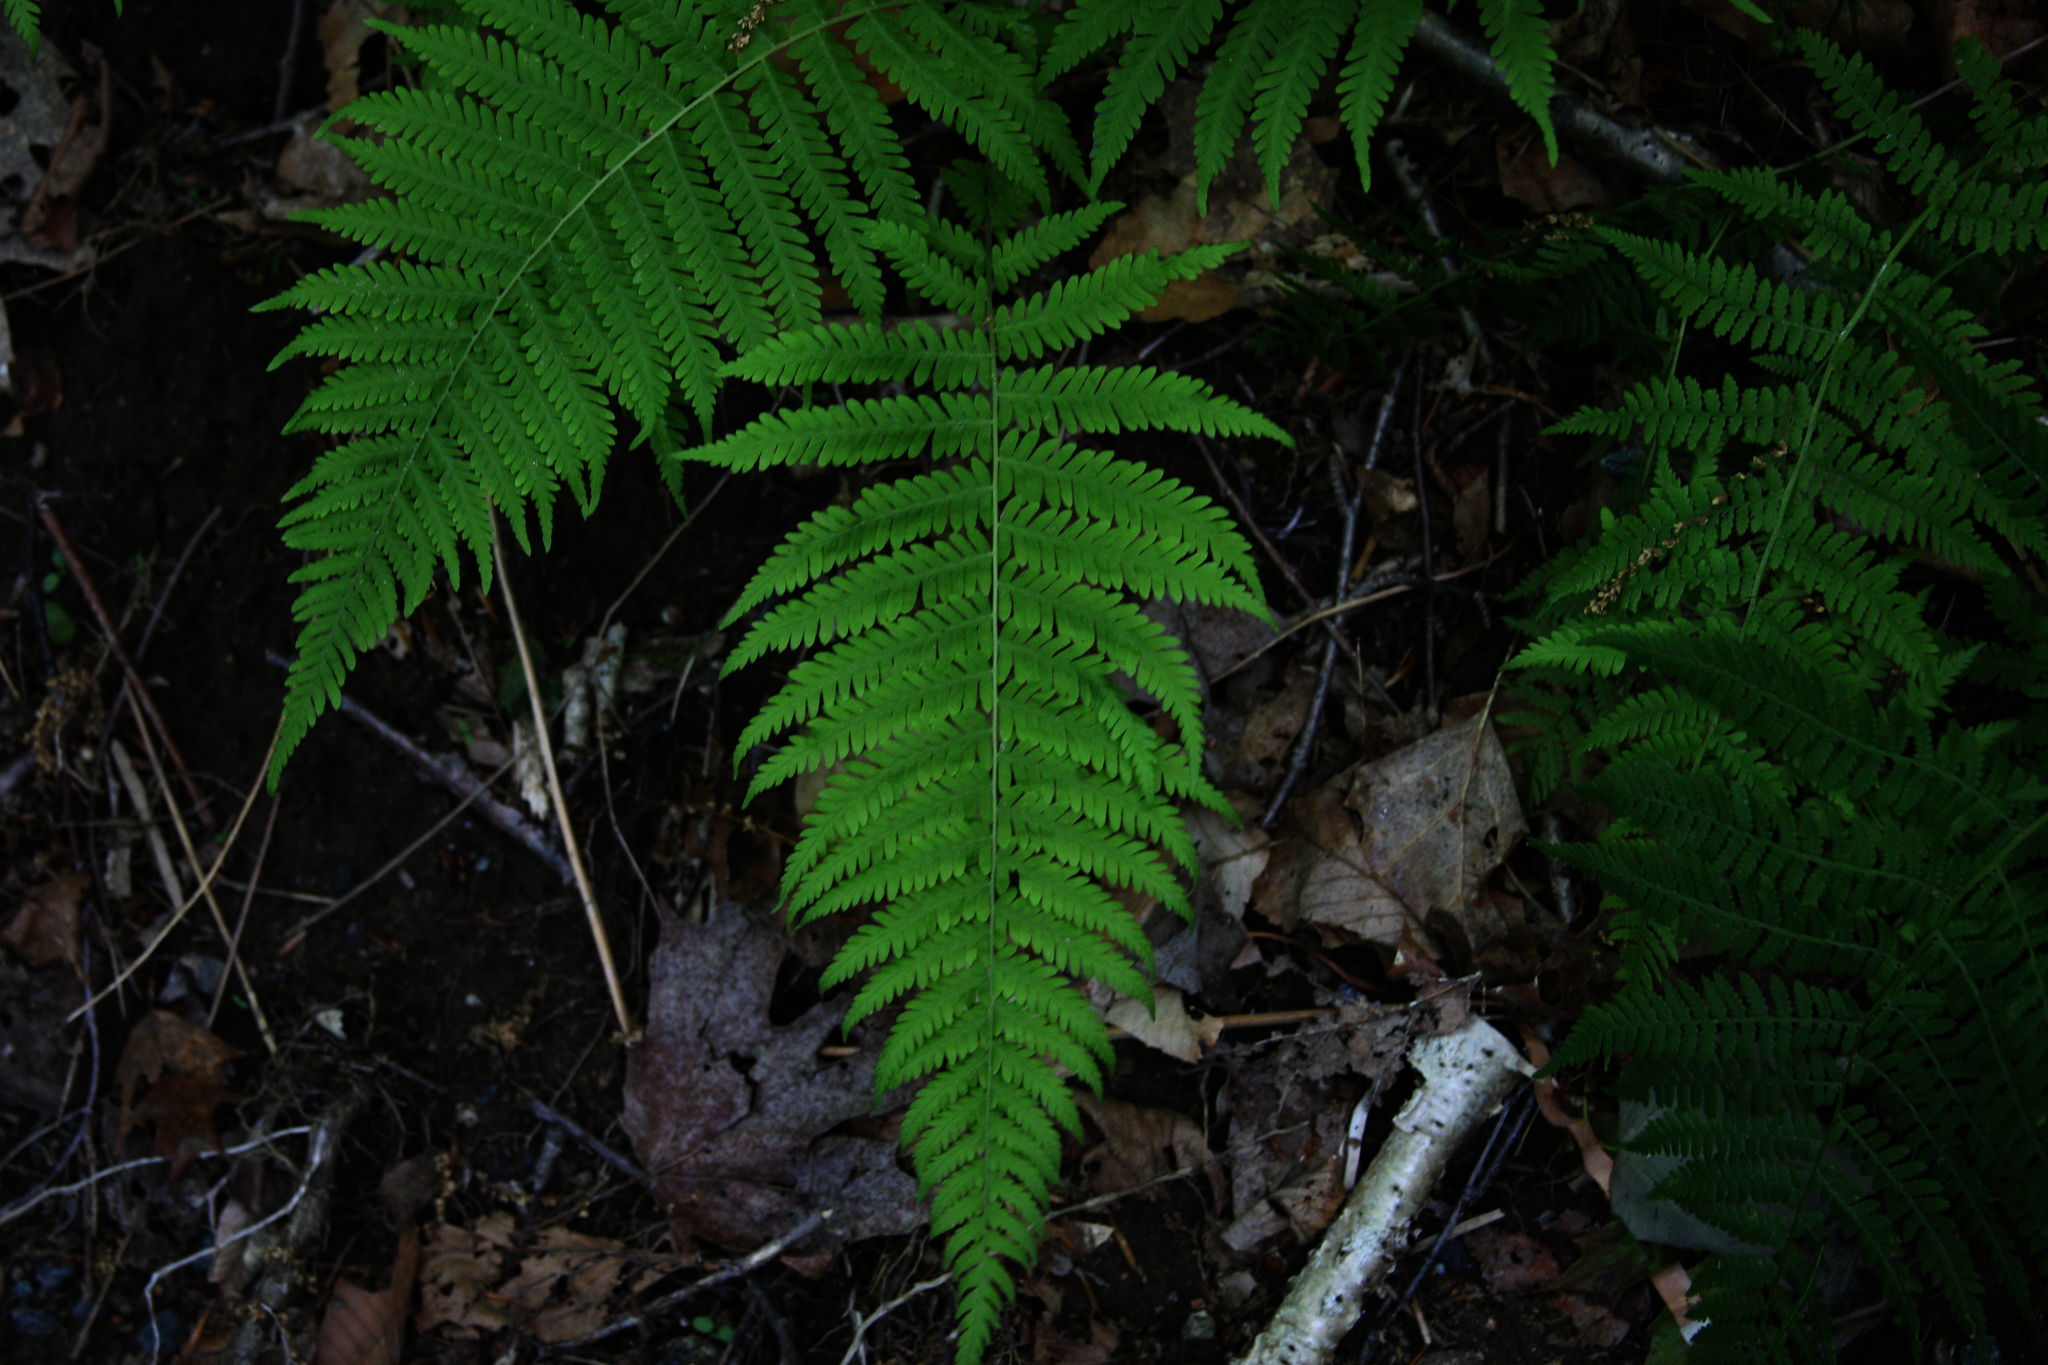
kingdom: Plantae
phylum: Tracheophyta
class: Polypodiopsida
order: Polypodiales
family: Thelypteridaceae
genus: Amauropelta
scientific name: Amauropelta noveboracensis
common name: New york fern
